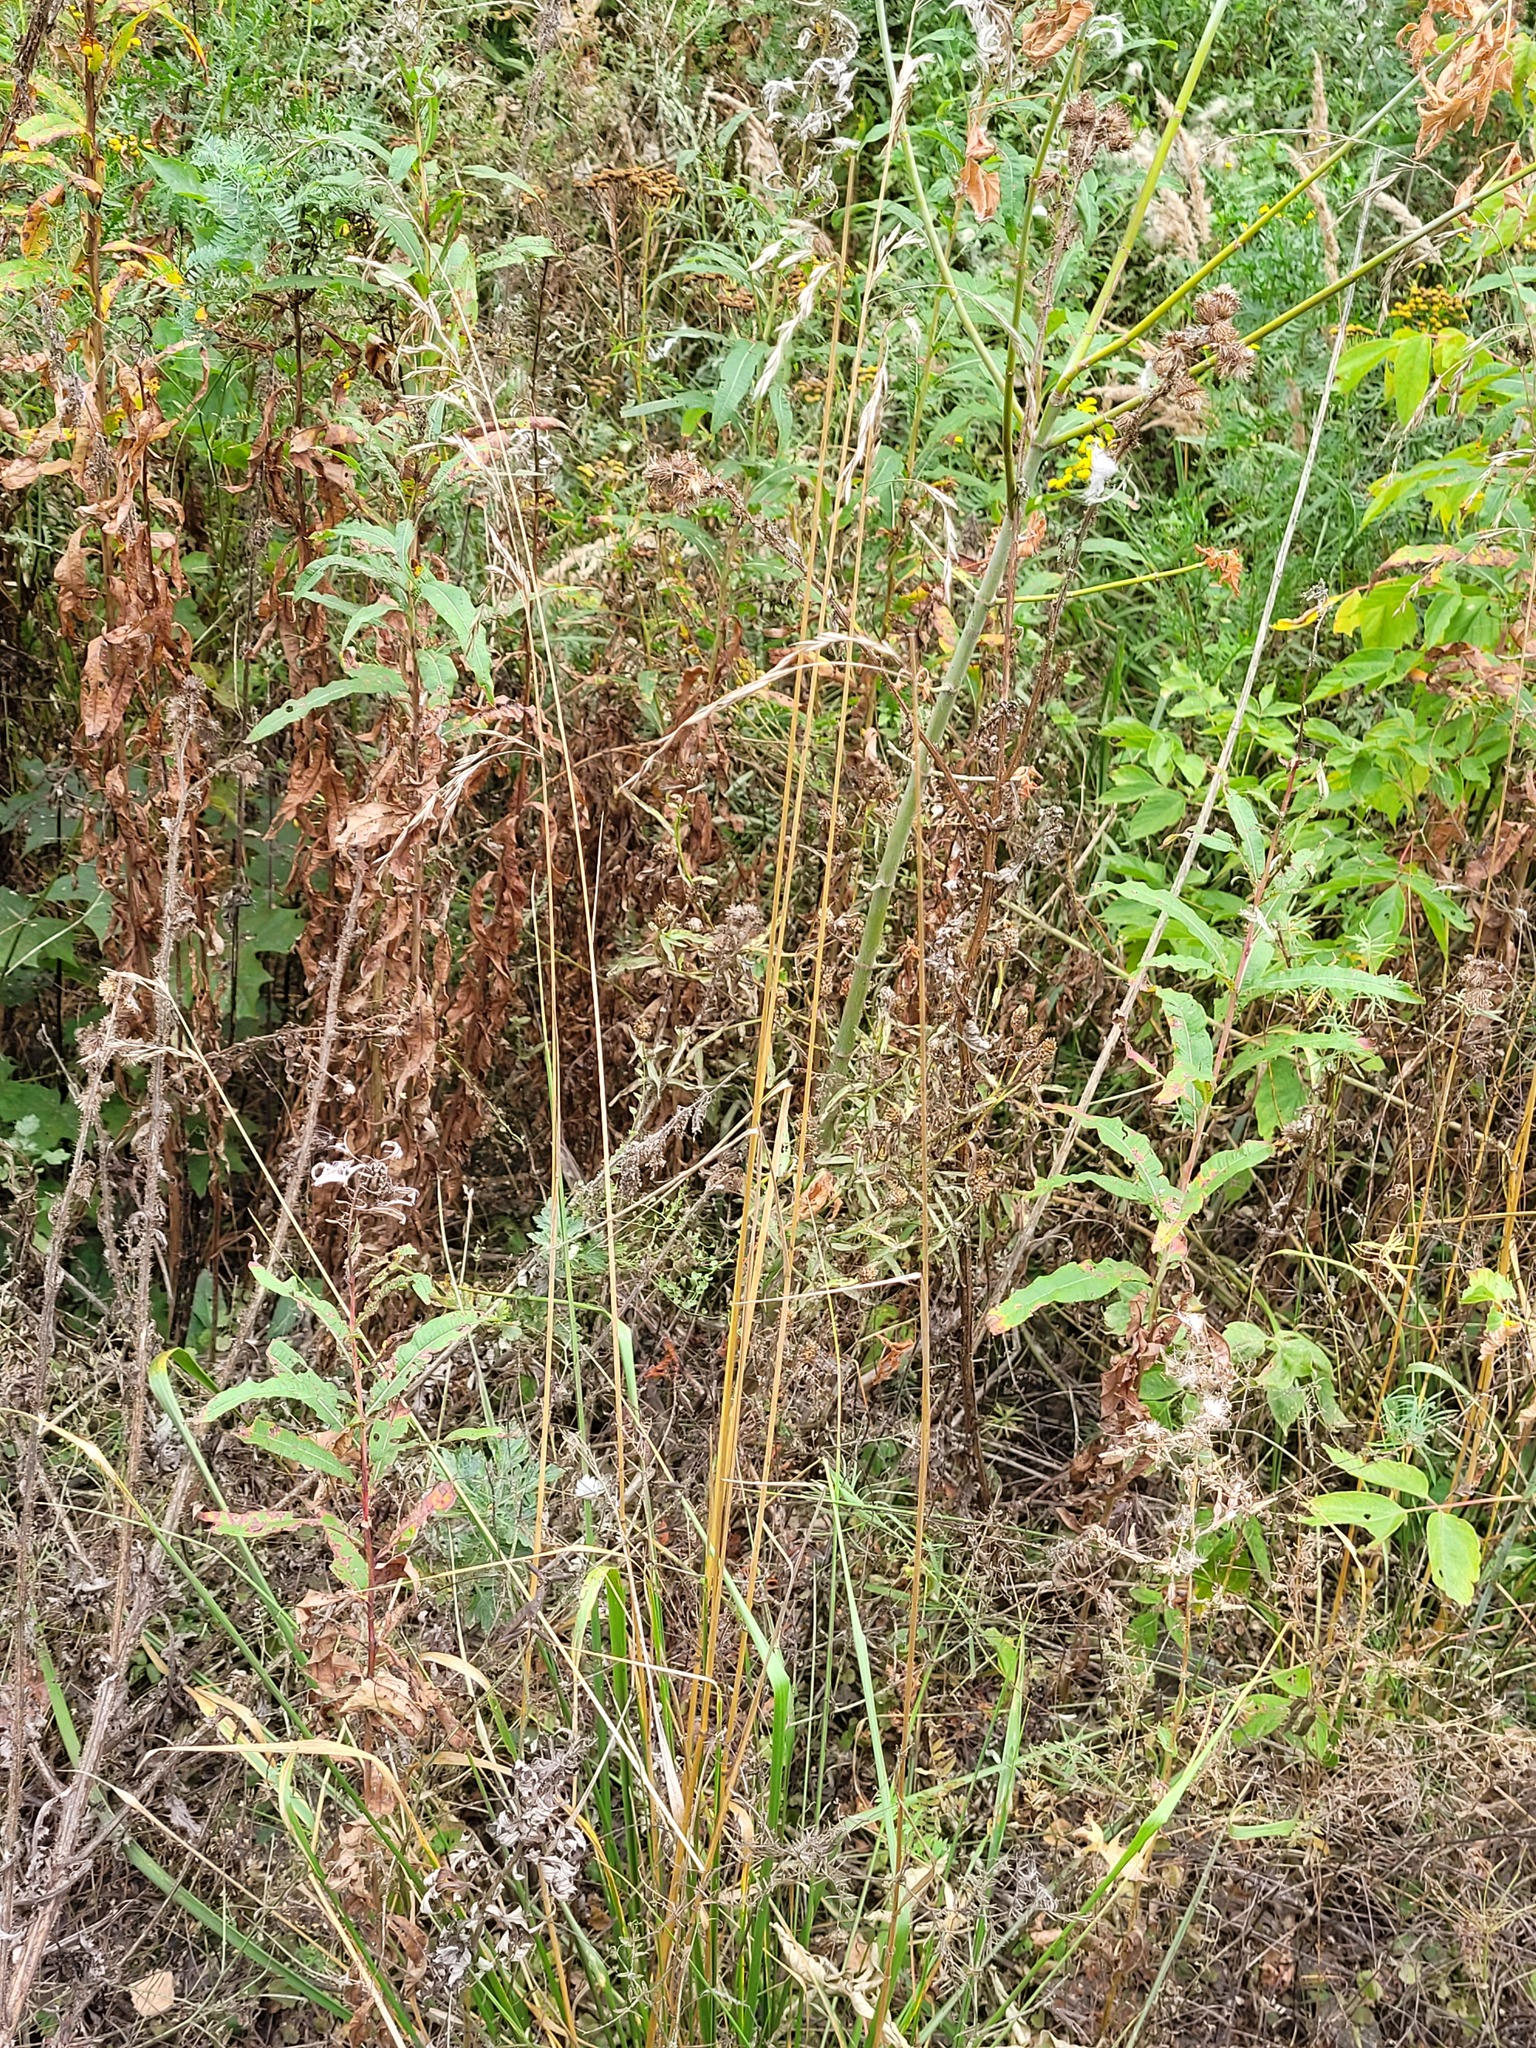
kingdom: Plantae
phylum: Tracheophyta
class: Liliopsida
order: Poales
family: Poaceae
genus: Lolium
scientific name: Lolium arundinaceum
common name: Reed fescue
